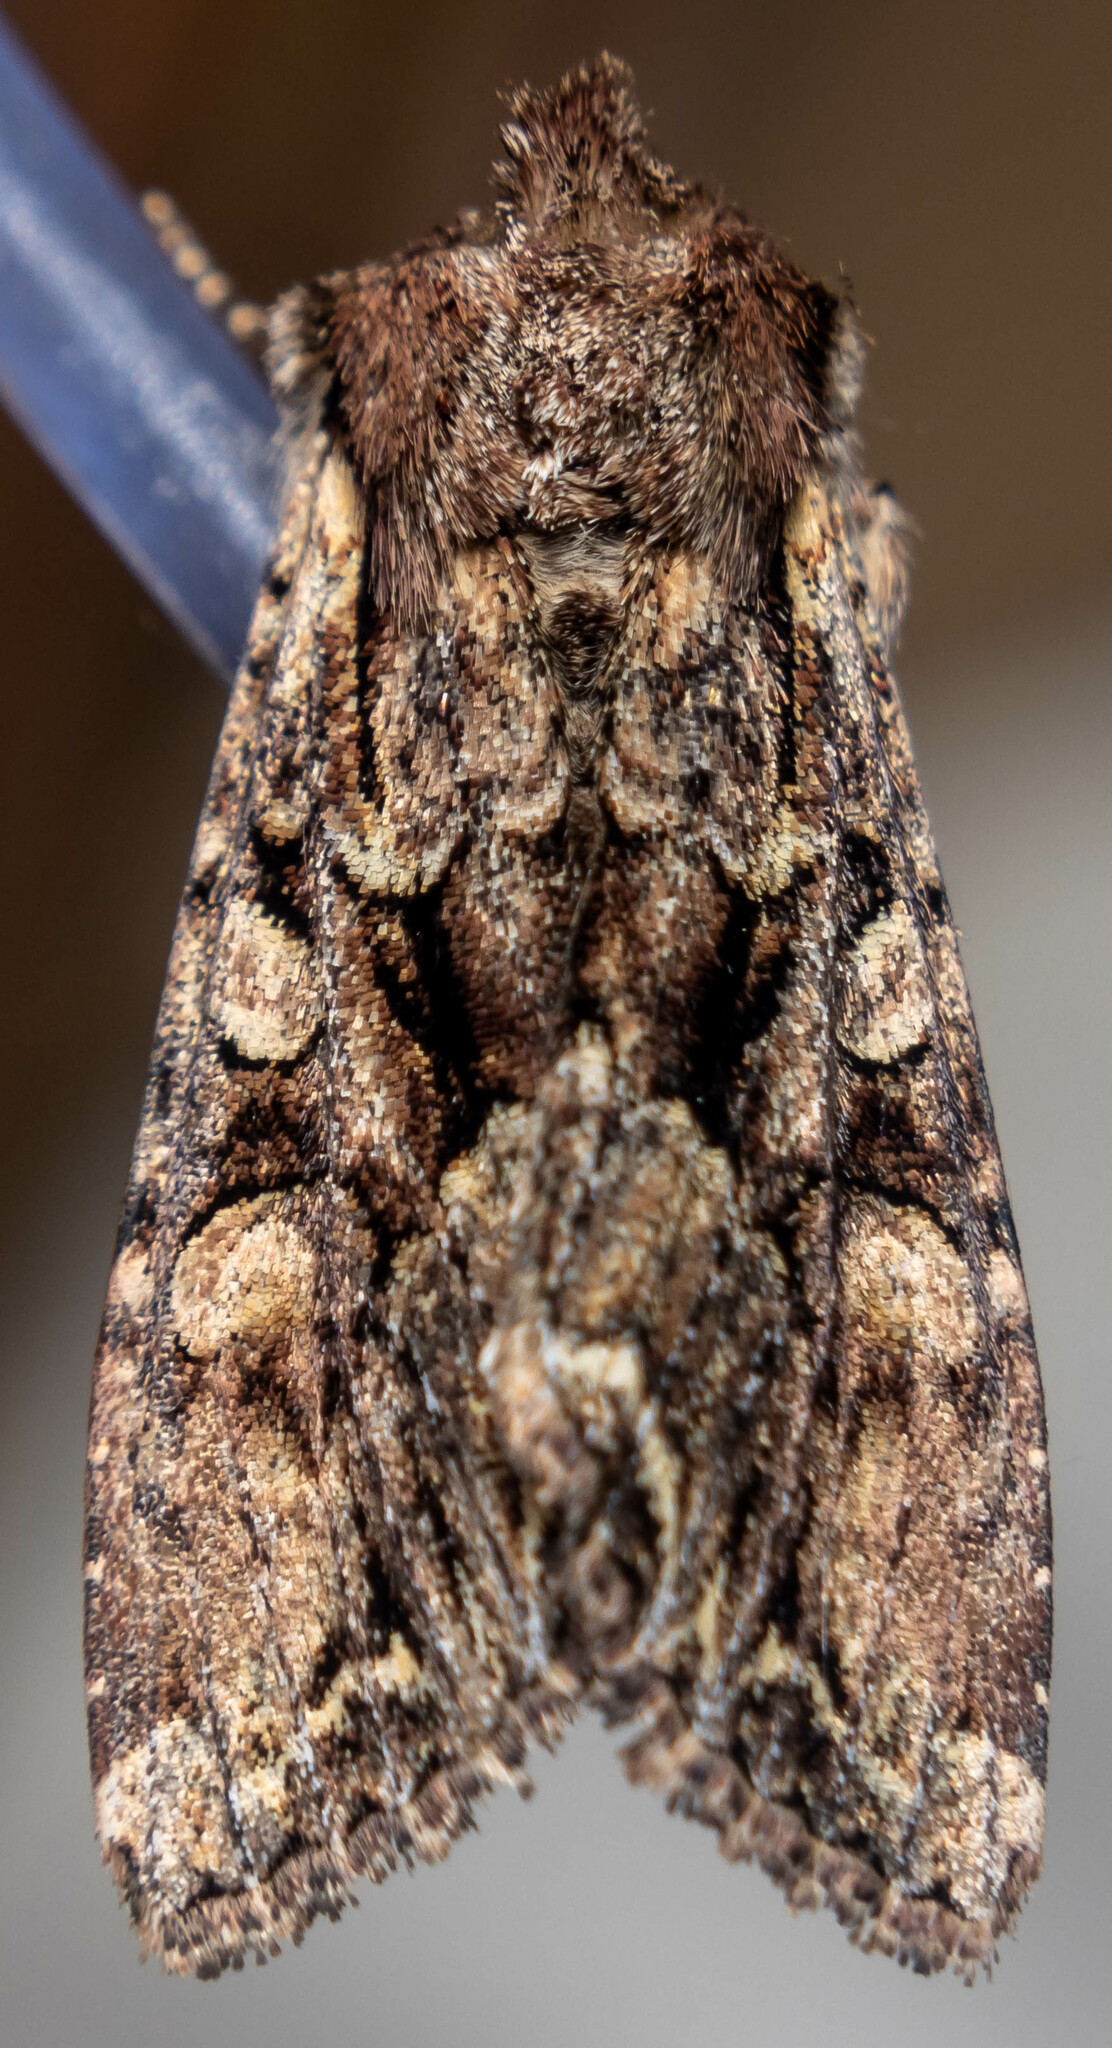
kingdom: Animalia
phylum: Arthropoda
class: Insecta
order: Lepidoptera
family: Noctuidae
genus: Lacanobia
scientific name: Lacanobia thalassina
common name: Pale-shouldered brocade
